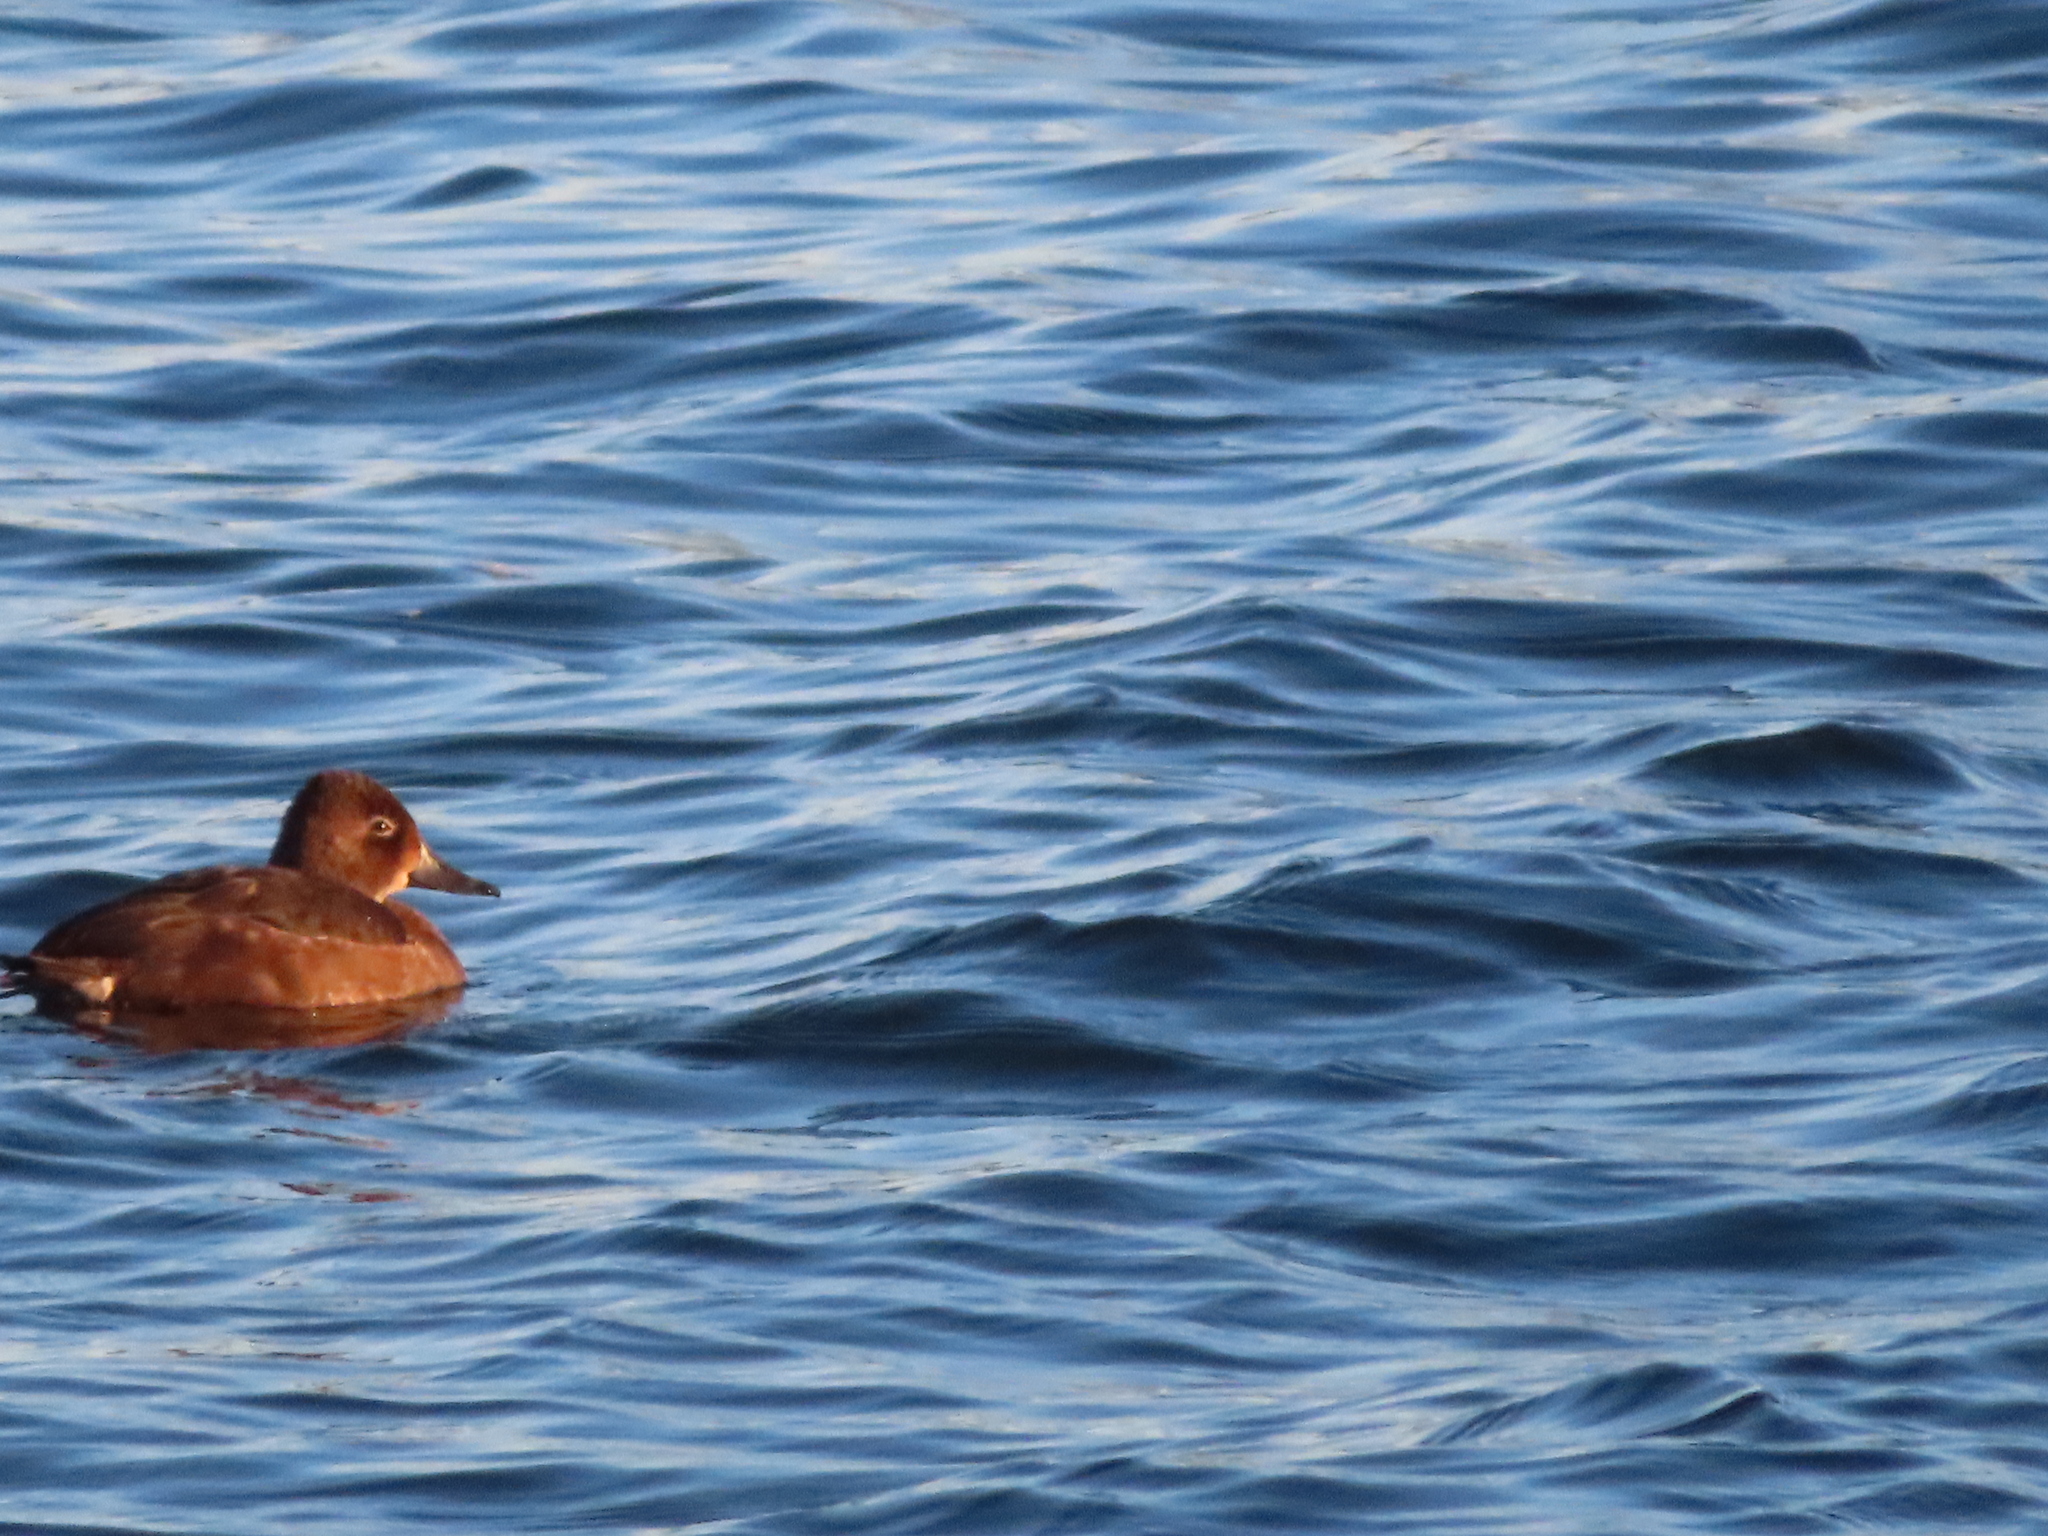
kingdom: Animalia
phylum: Chordata
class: Aves
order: Anseriformes
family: Anatidae
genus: Aythya
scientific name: Aythya collaris
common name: Ring-necked duck
